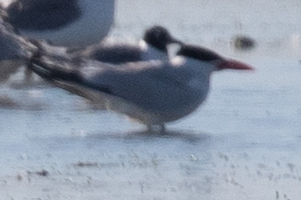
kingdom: Animalia
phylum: Chordata
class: Aves
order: Charadriiformes
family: Laridae
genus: Leucophaeus
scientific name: Leucophaeus pipixcan
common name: Franklin's gull
